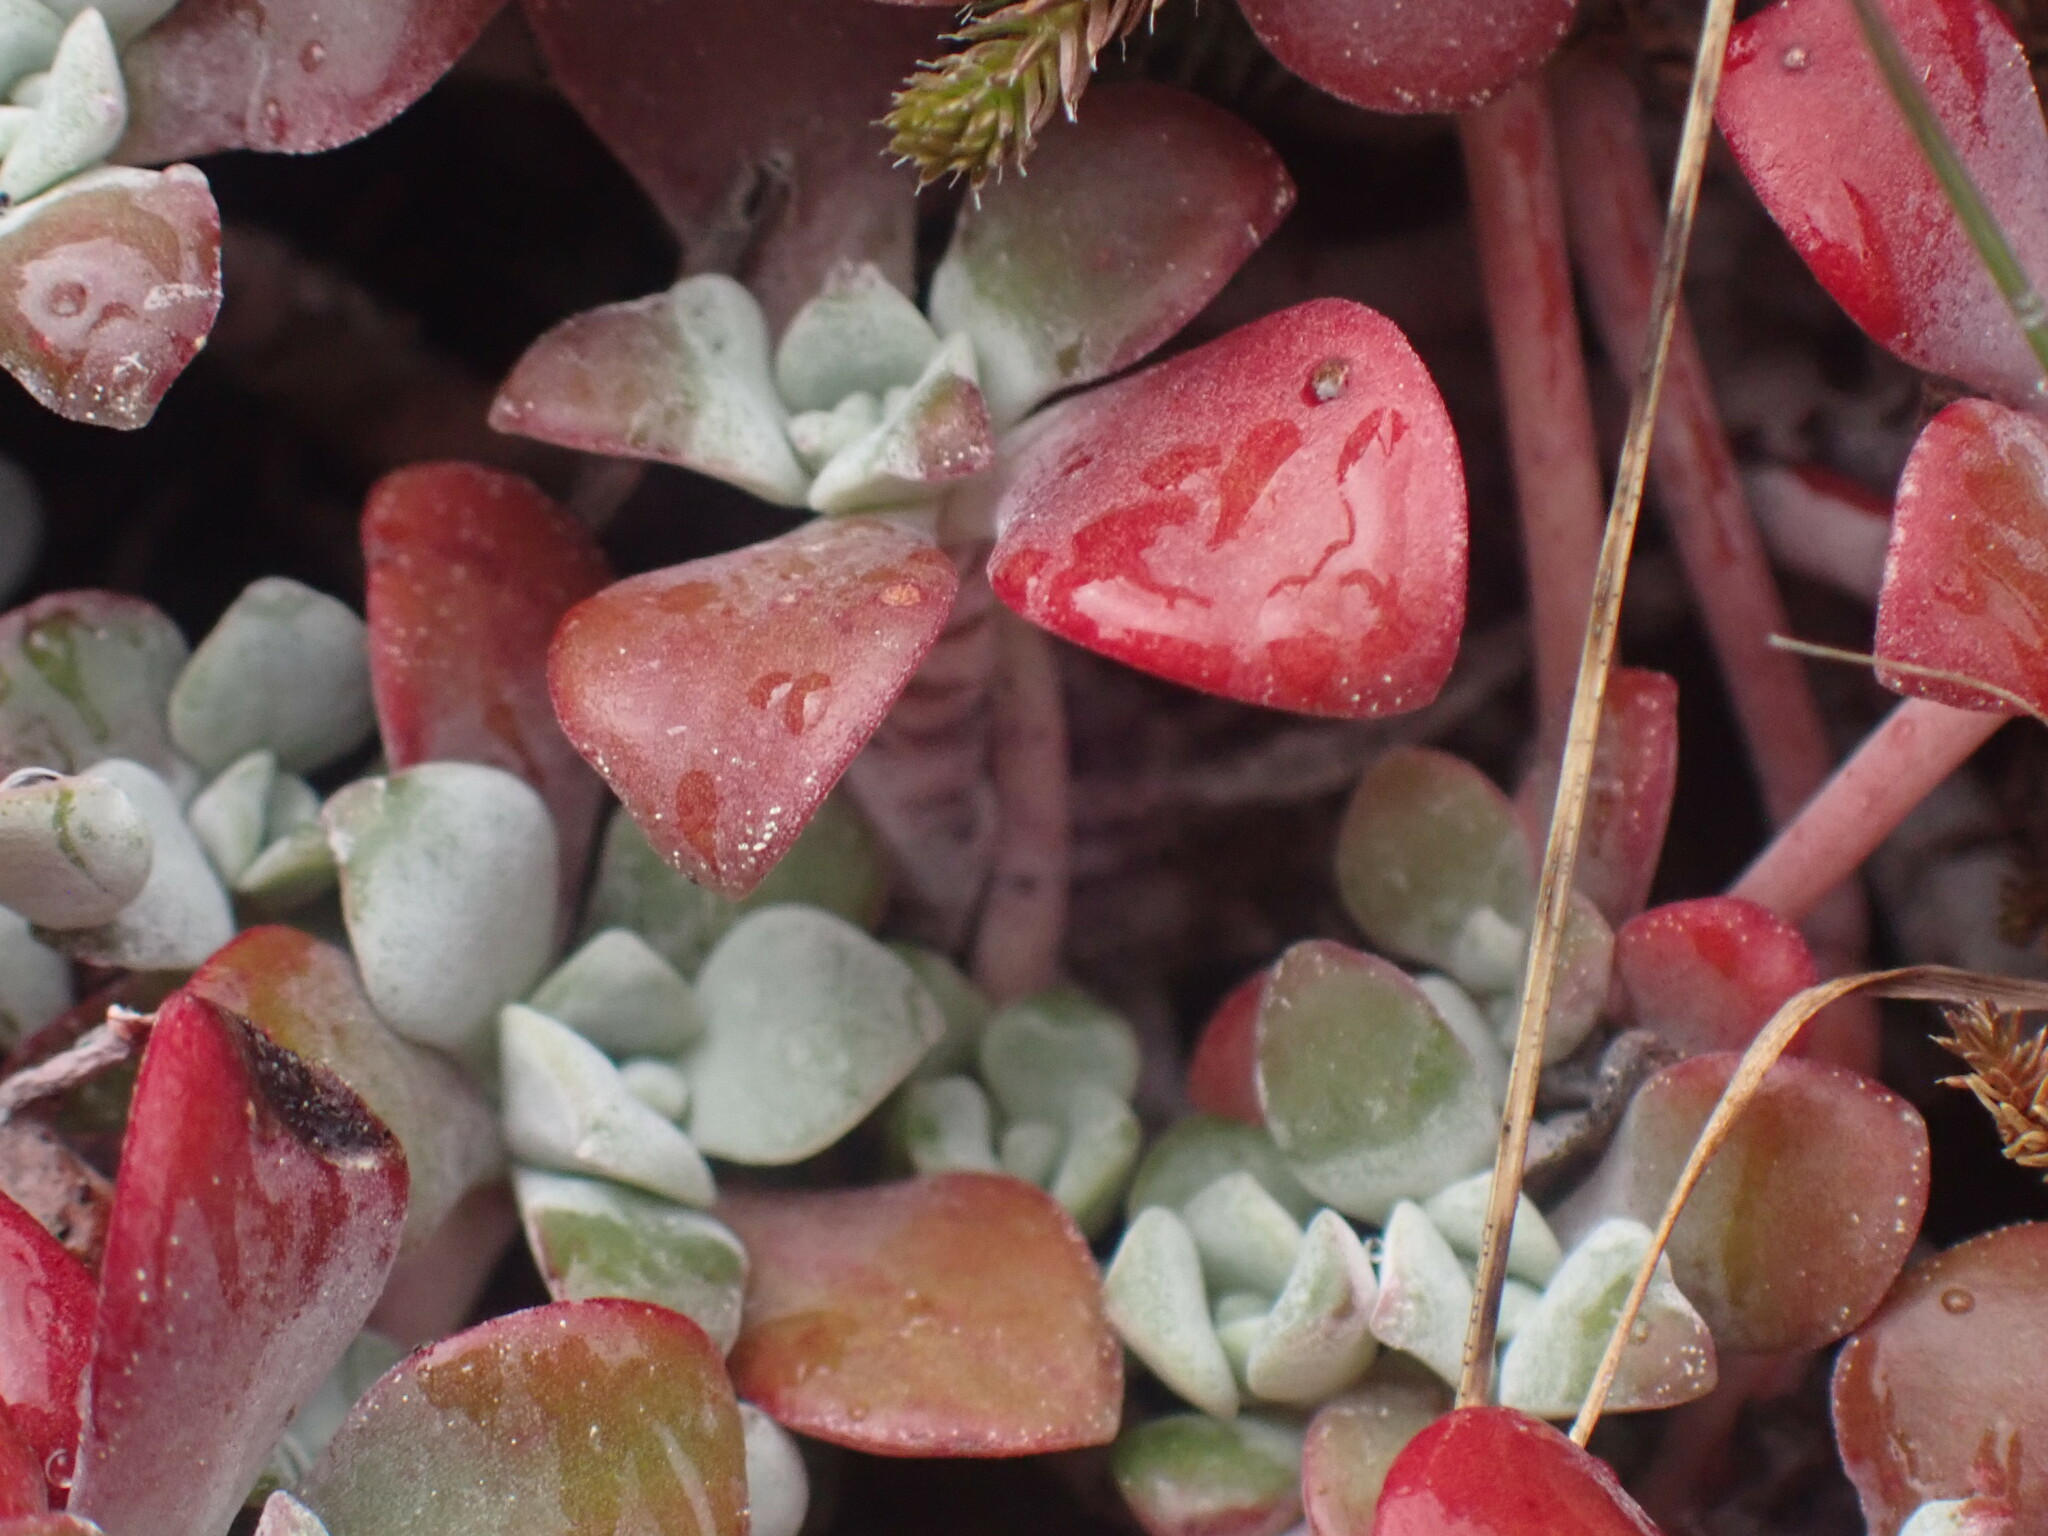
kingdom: Plantae
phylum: Tracheophyta
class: Magnoliopsida
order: Saxifragales
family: Crassulaceae
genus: Sedum
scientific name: Sedum spathulifolium
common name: Colorado stonecrop
